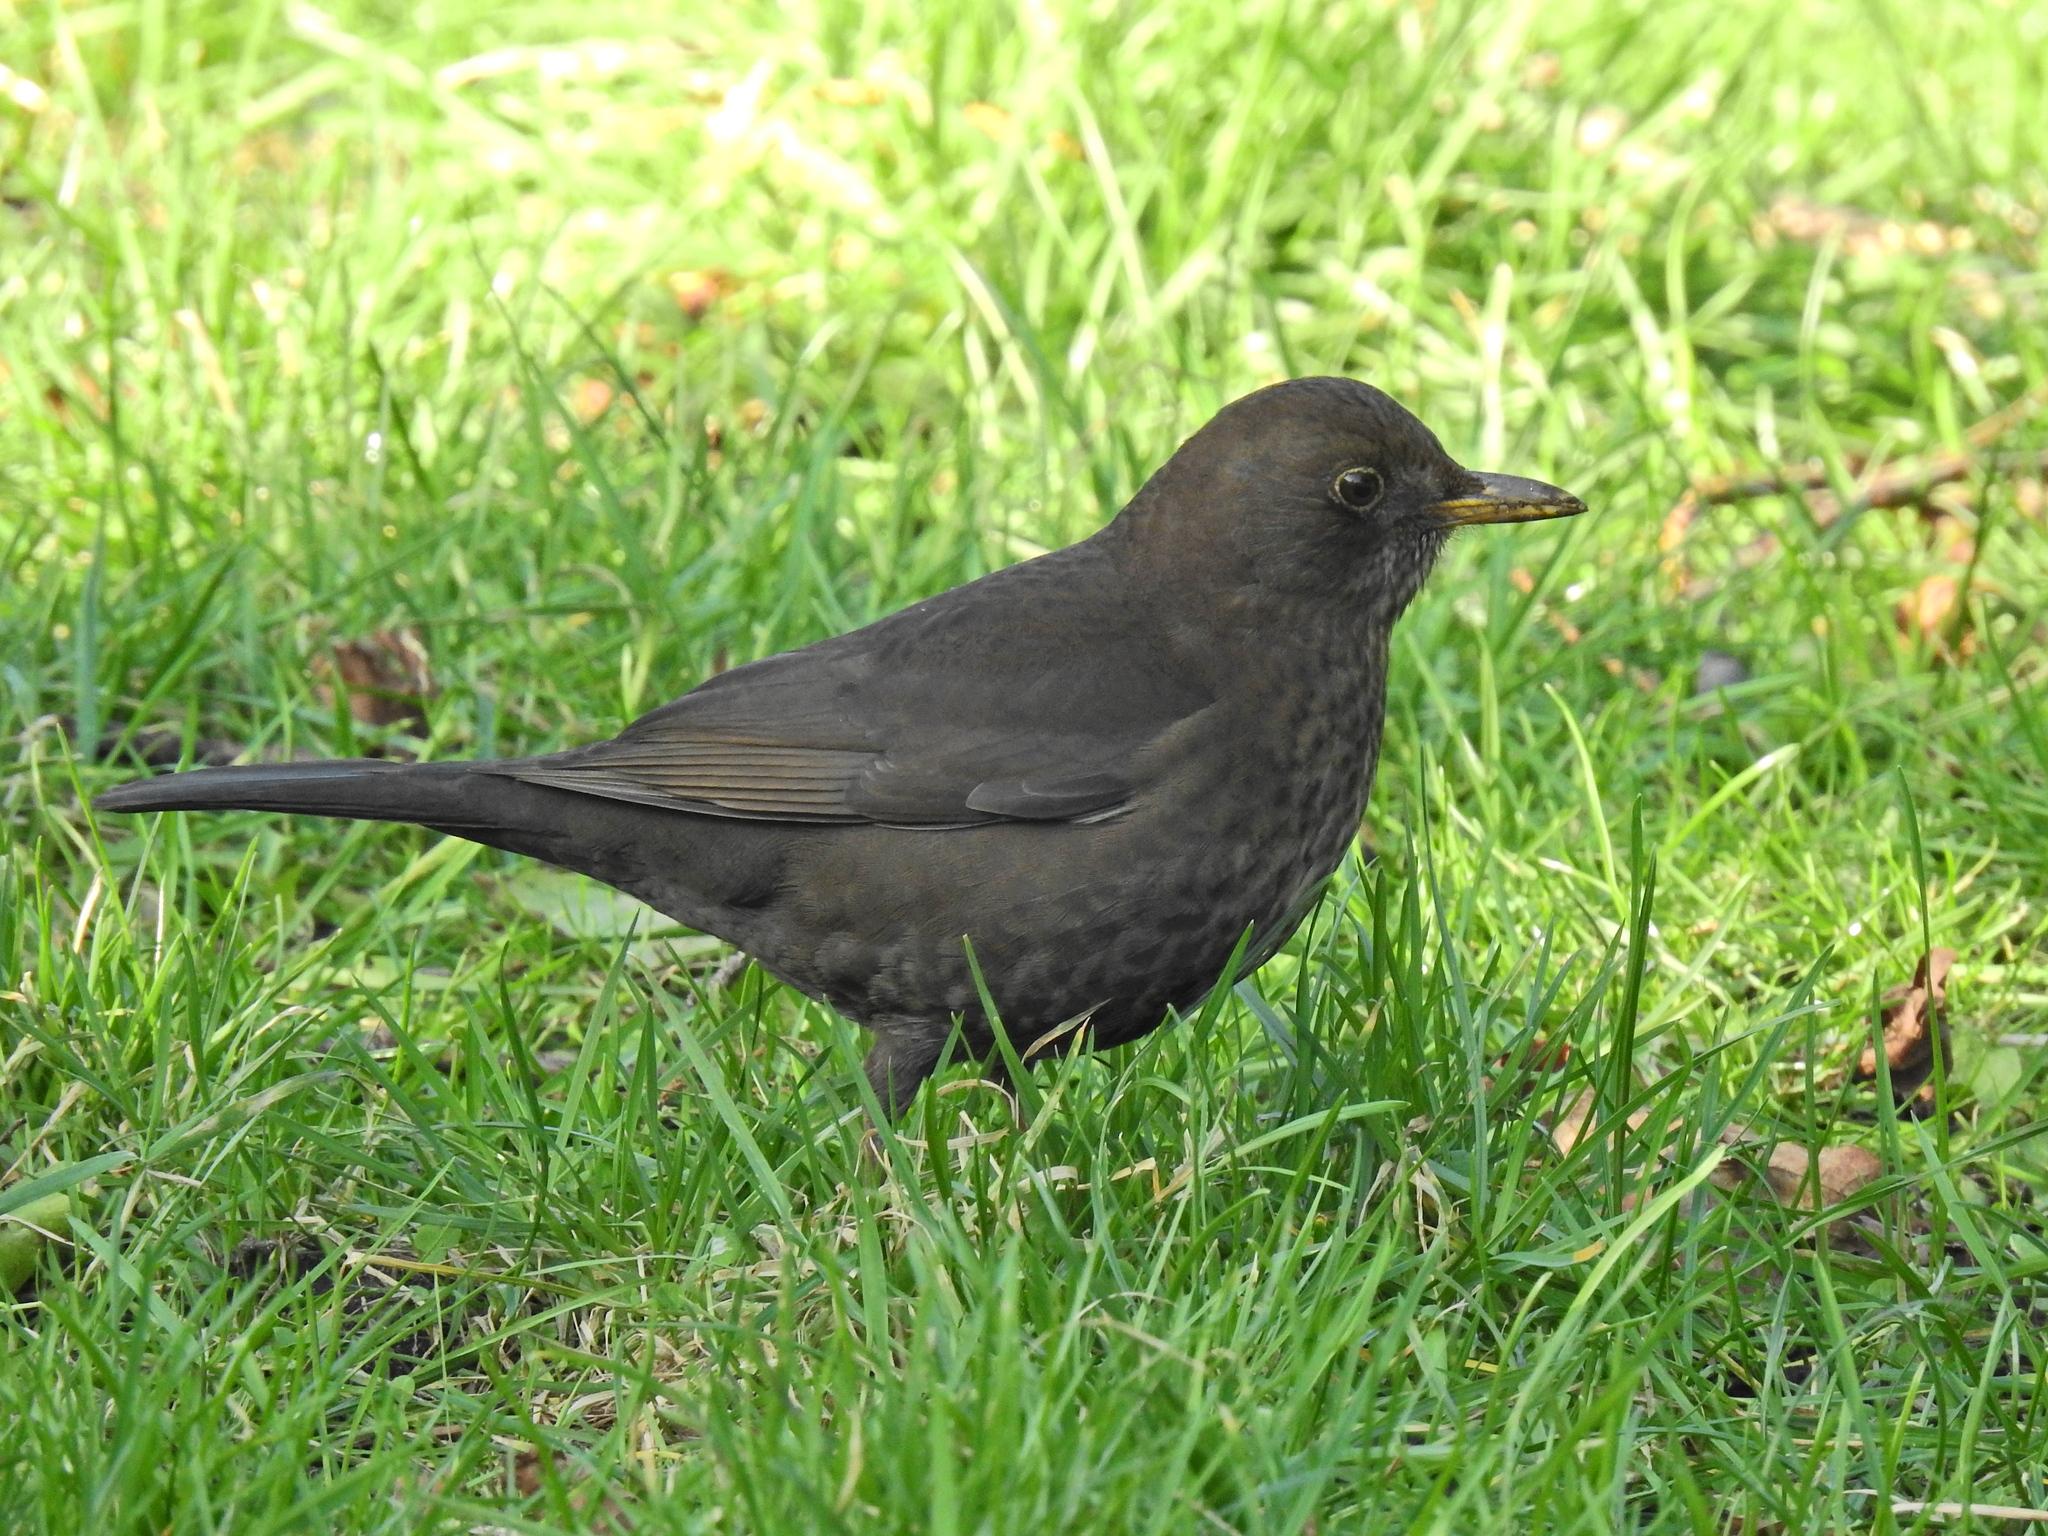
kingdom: Animalia
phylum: Chordata
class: Aves
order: Passeriformes
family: Turdidae
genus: Turdus
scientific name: Turdus merula
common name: Common blackbird
